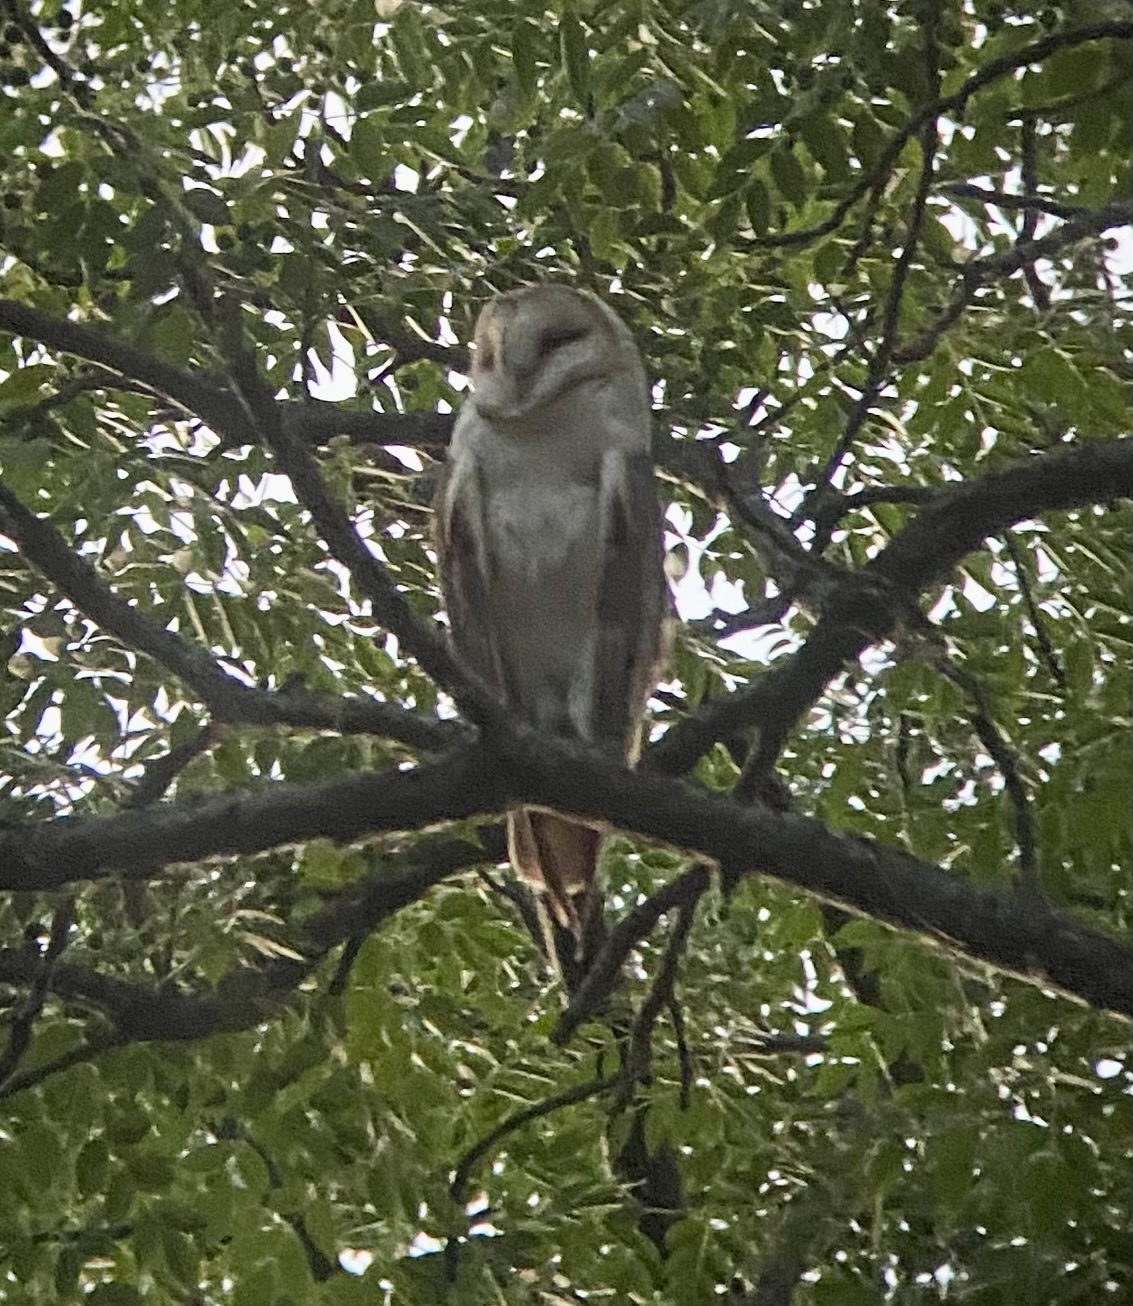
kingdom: Animalia
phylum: Chordata
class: Aves
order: Strigiformes
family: Tytonidae
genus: Tyto
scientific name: Tyto alba
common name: Barn owl
